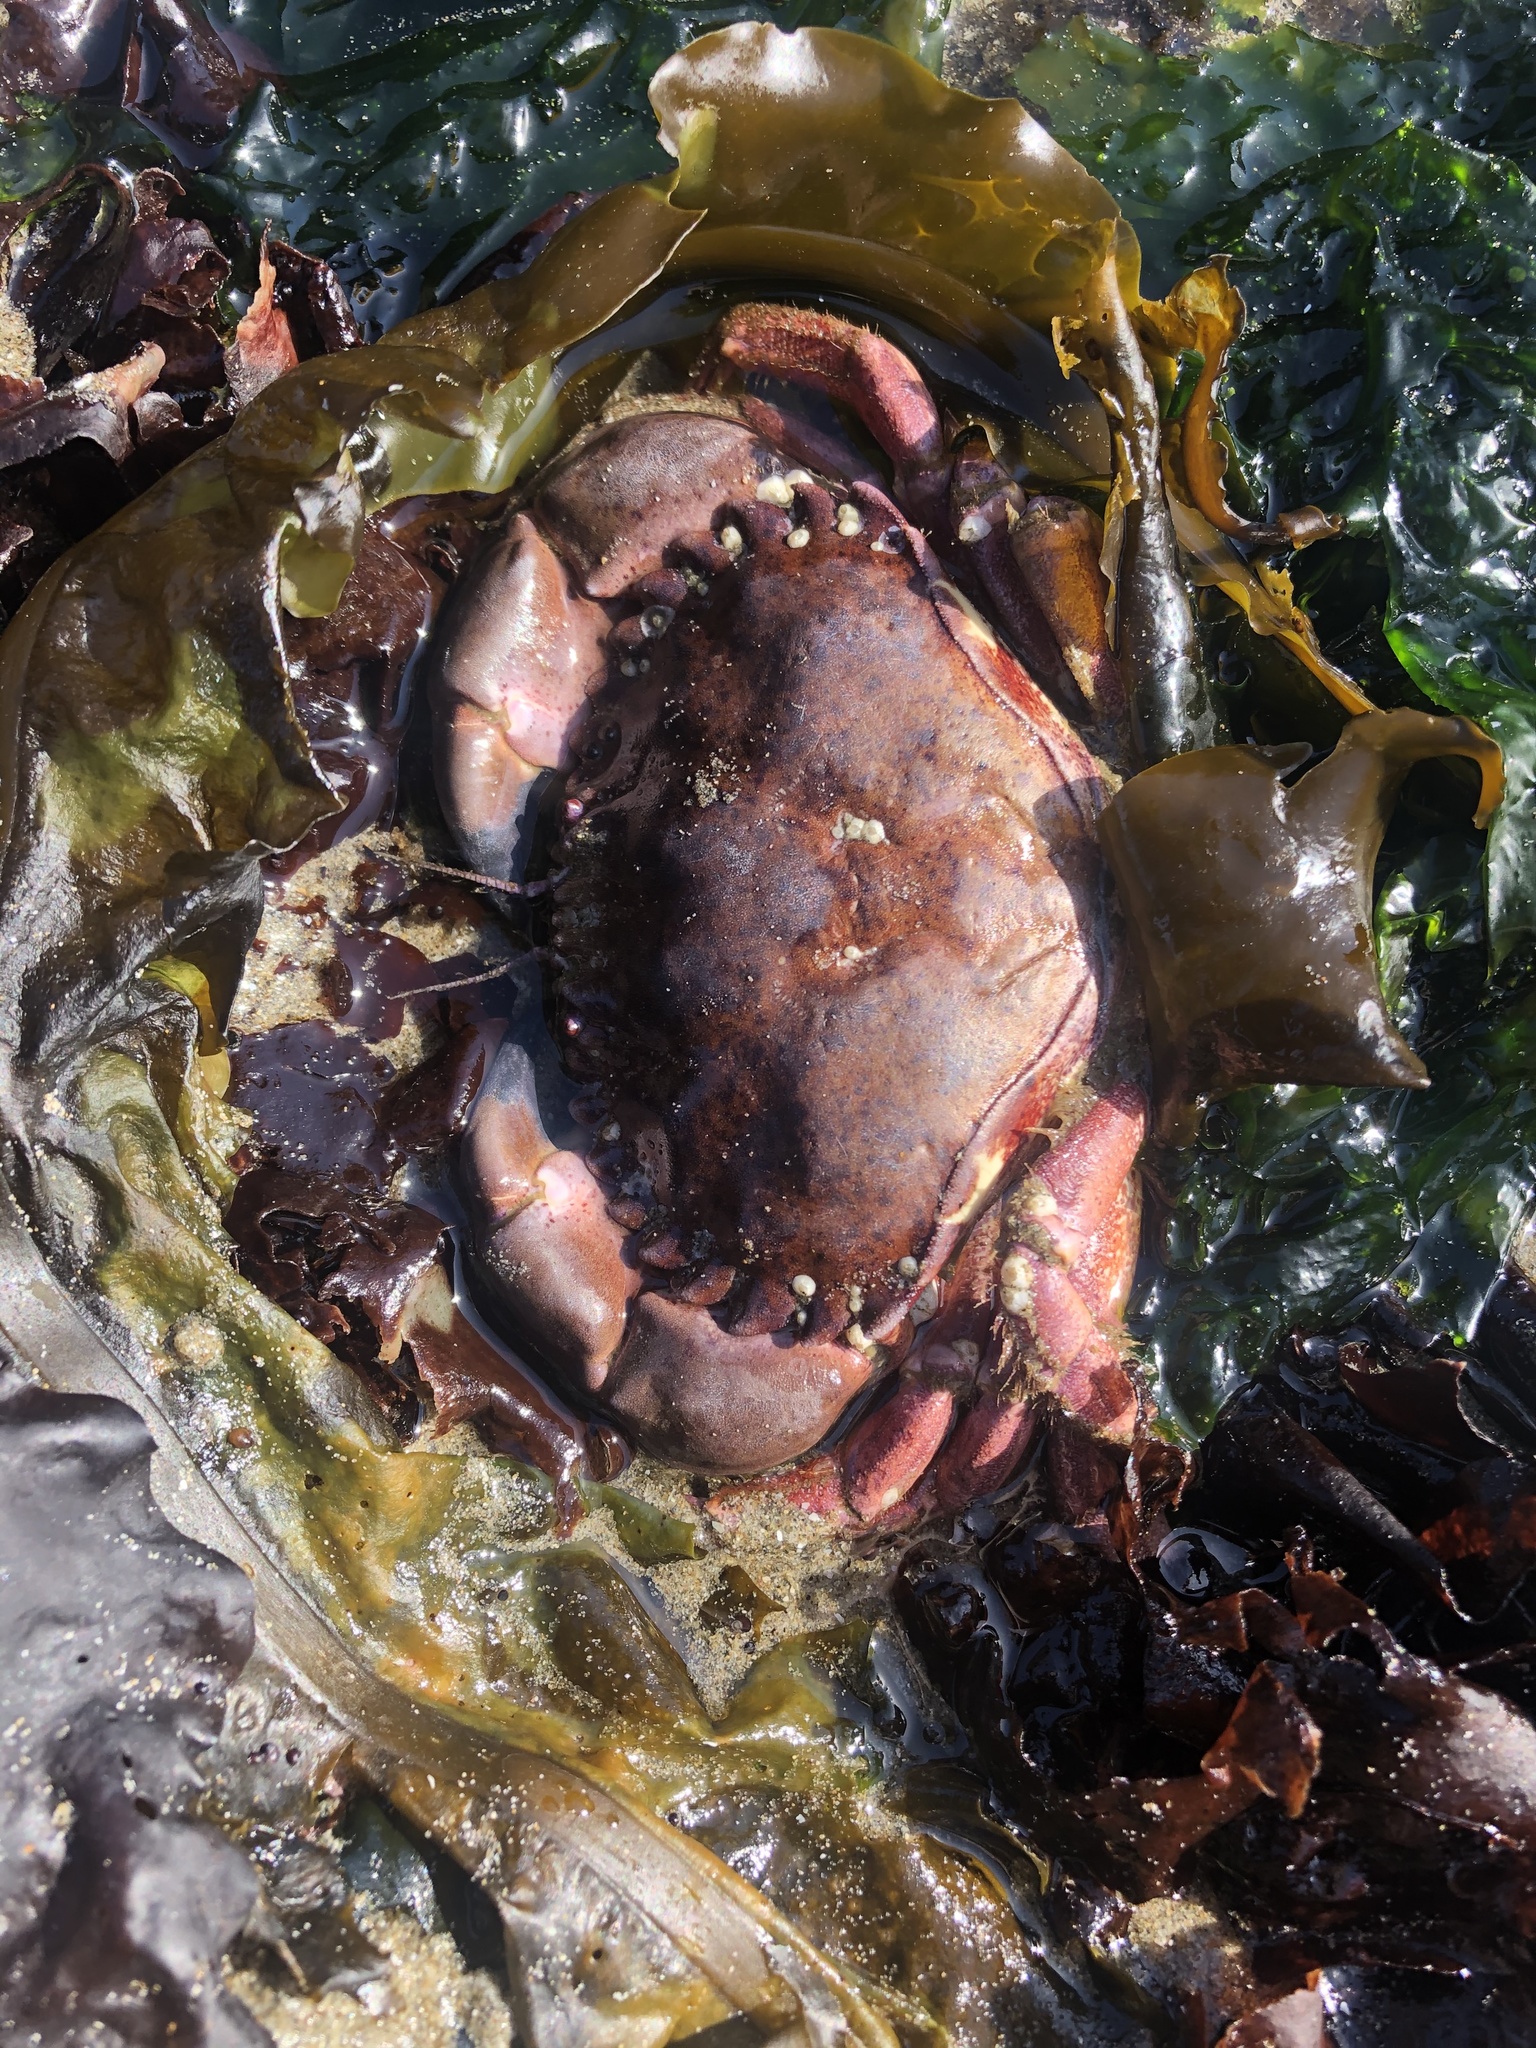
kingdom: Animalia
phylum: Arthropoda
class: Malacostraca
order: Decapoda
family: Cancridae
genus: Romaleon
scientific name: Romaleon antennarium
